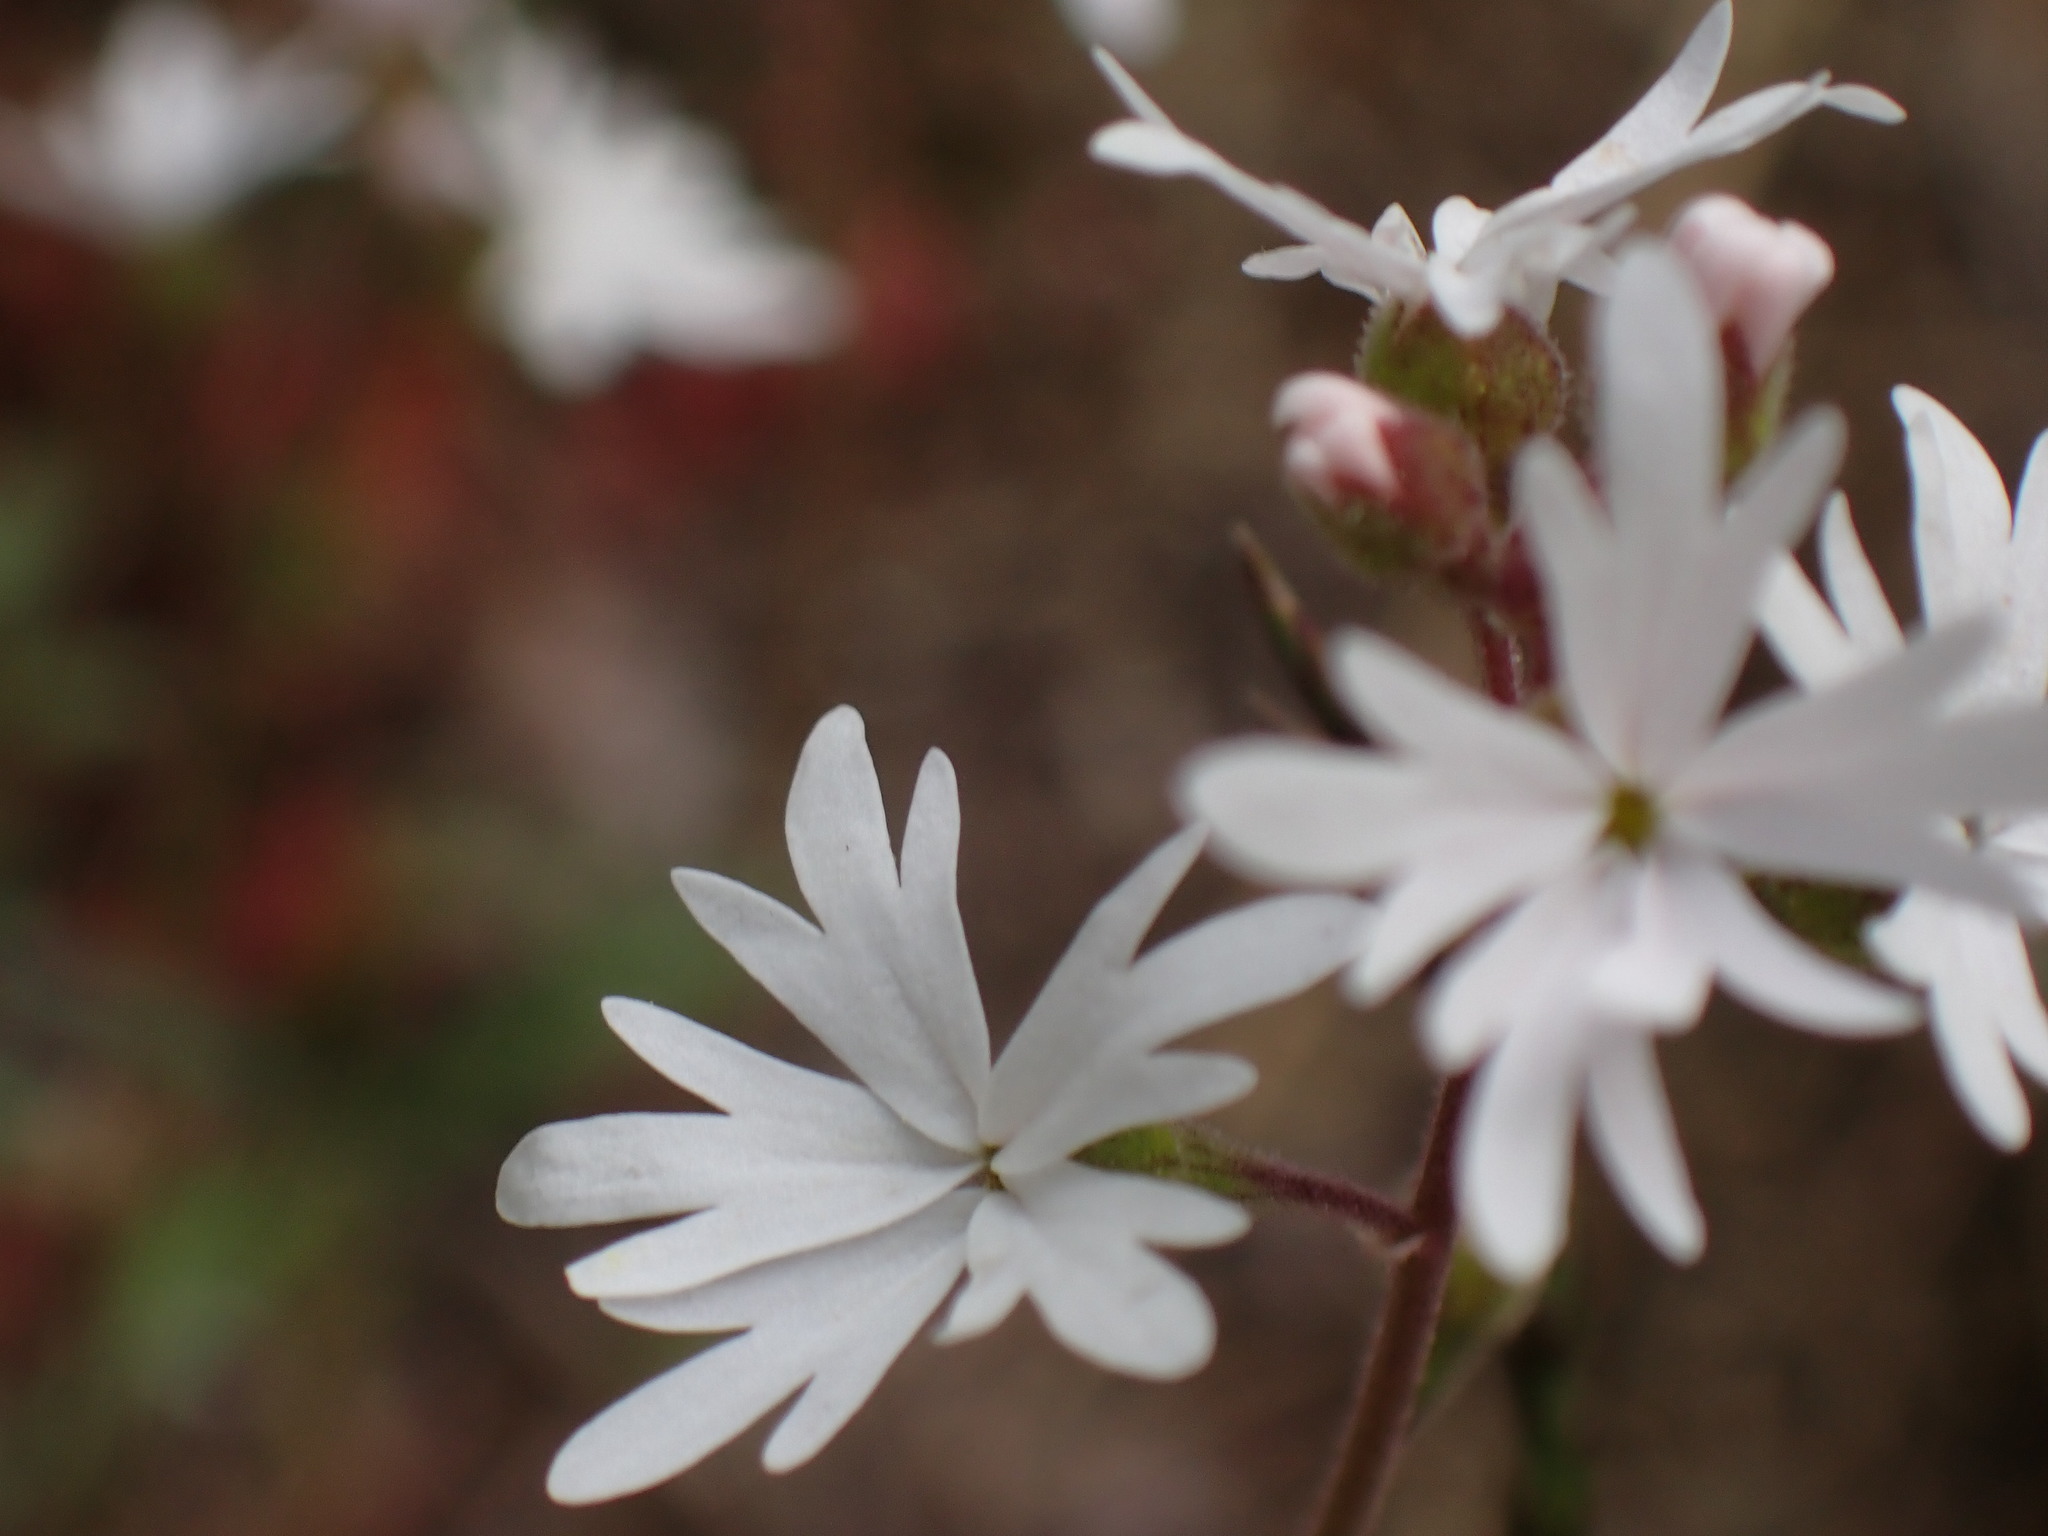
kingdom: Plantae
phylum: Tracheophyta
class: Magnoliopsida
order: Saxifragales
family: Saxifragaceae
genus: Lithophragma
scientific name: Lithophragma parviflorum
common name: Small-flowered fringe-cup
